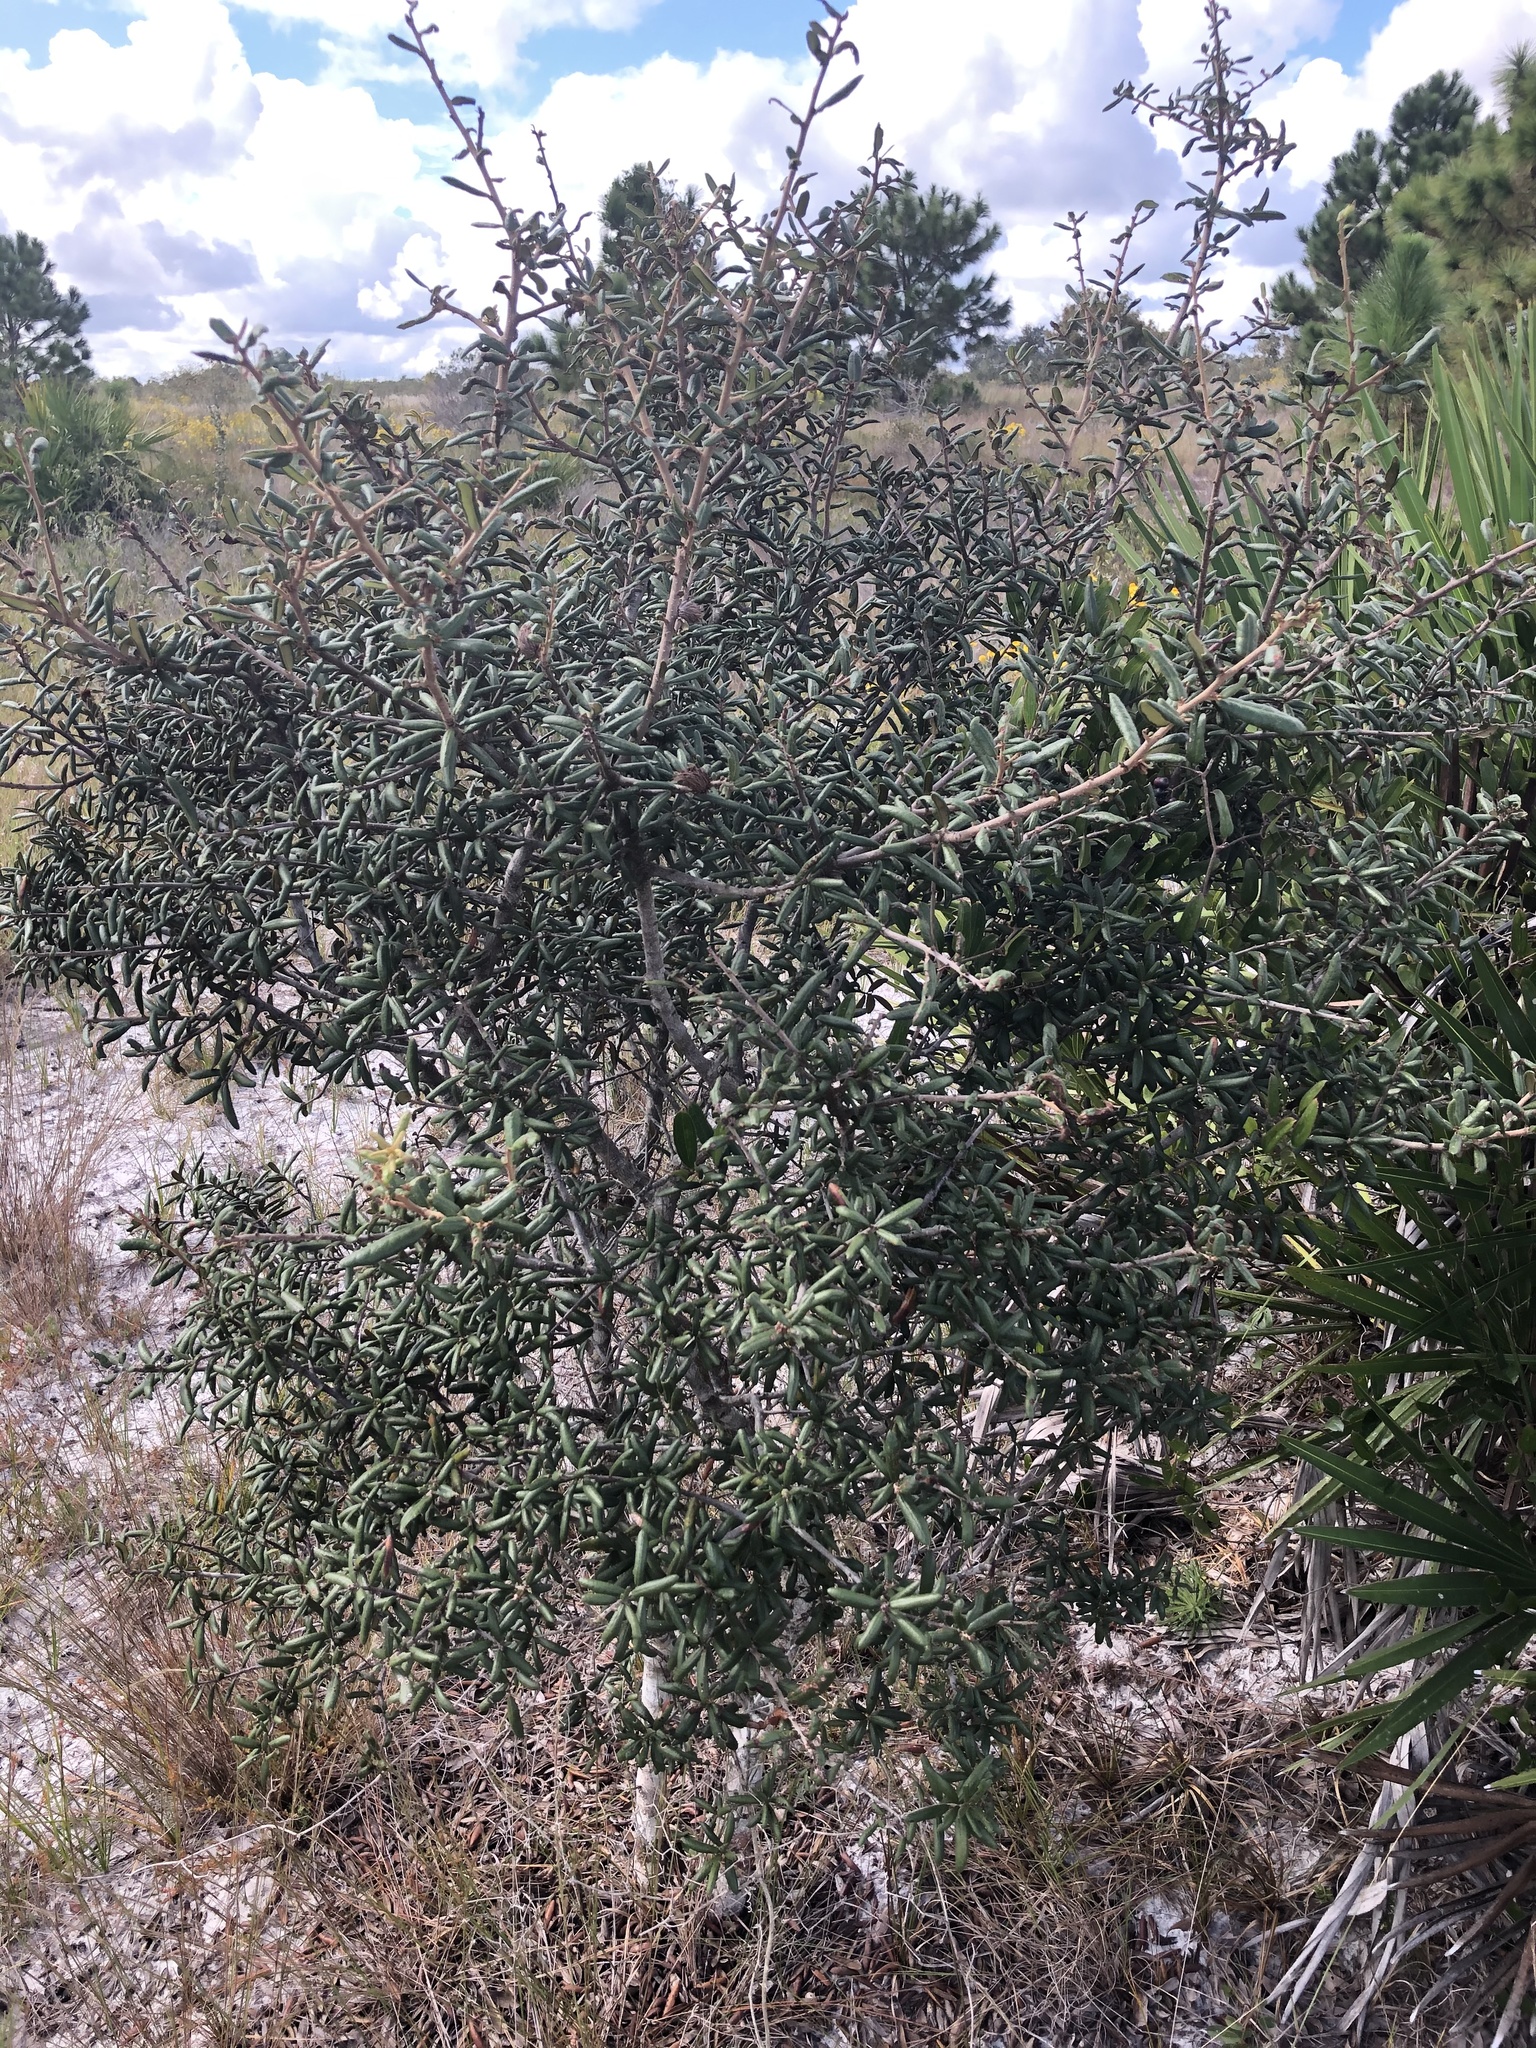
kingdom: Plantae
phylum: Tracheophyta
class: Magnoliopsida
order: Fagales
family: Fagaceae
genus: Quercus
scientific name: Quercus geminata
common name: Sand live oak
